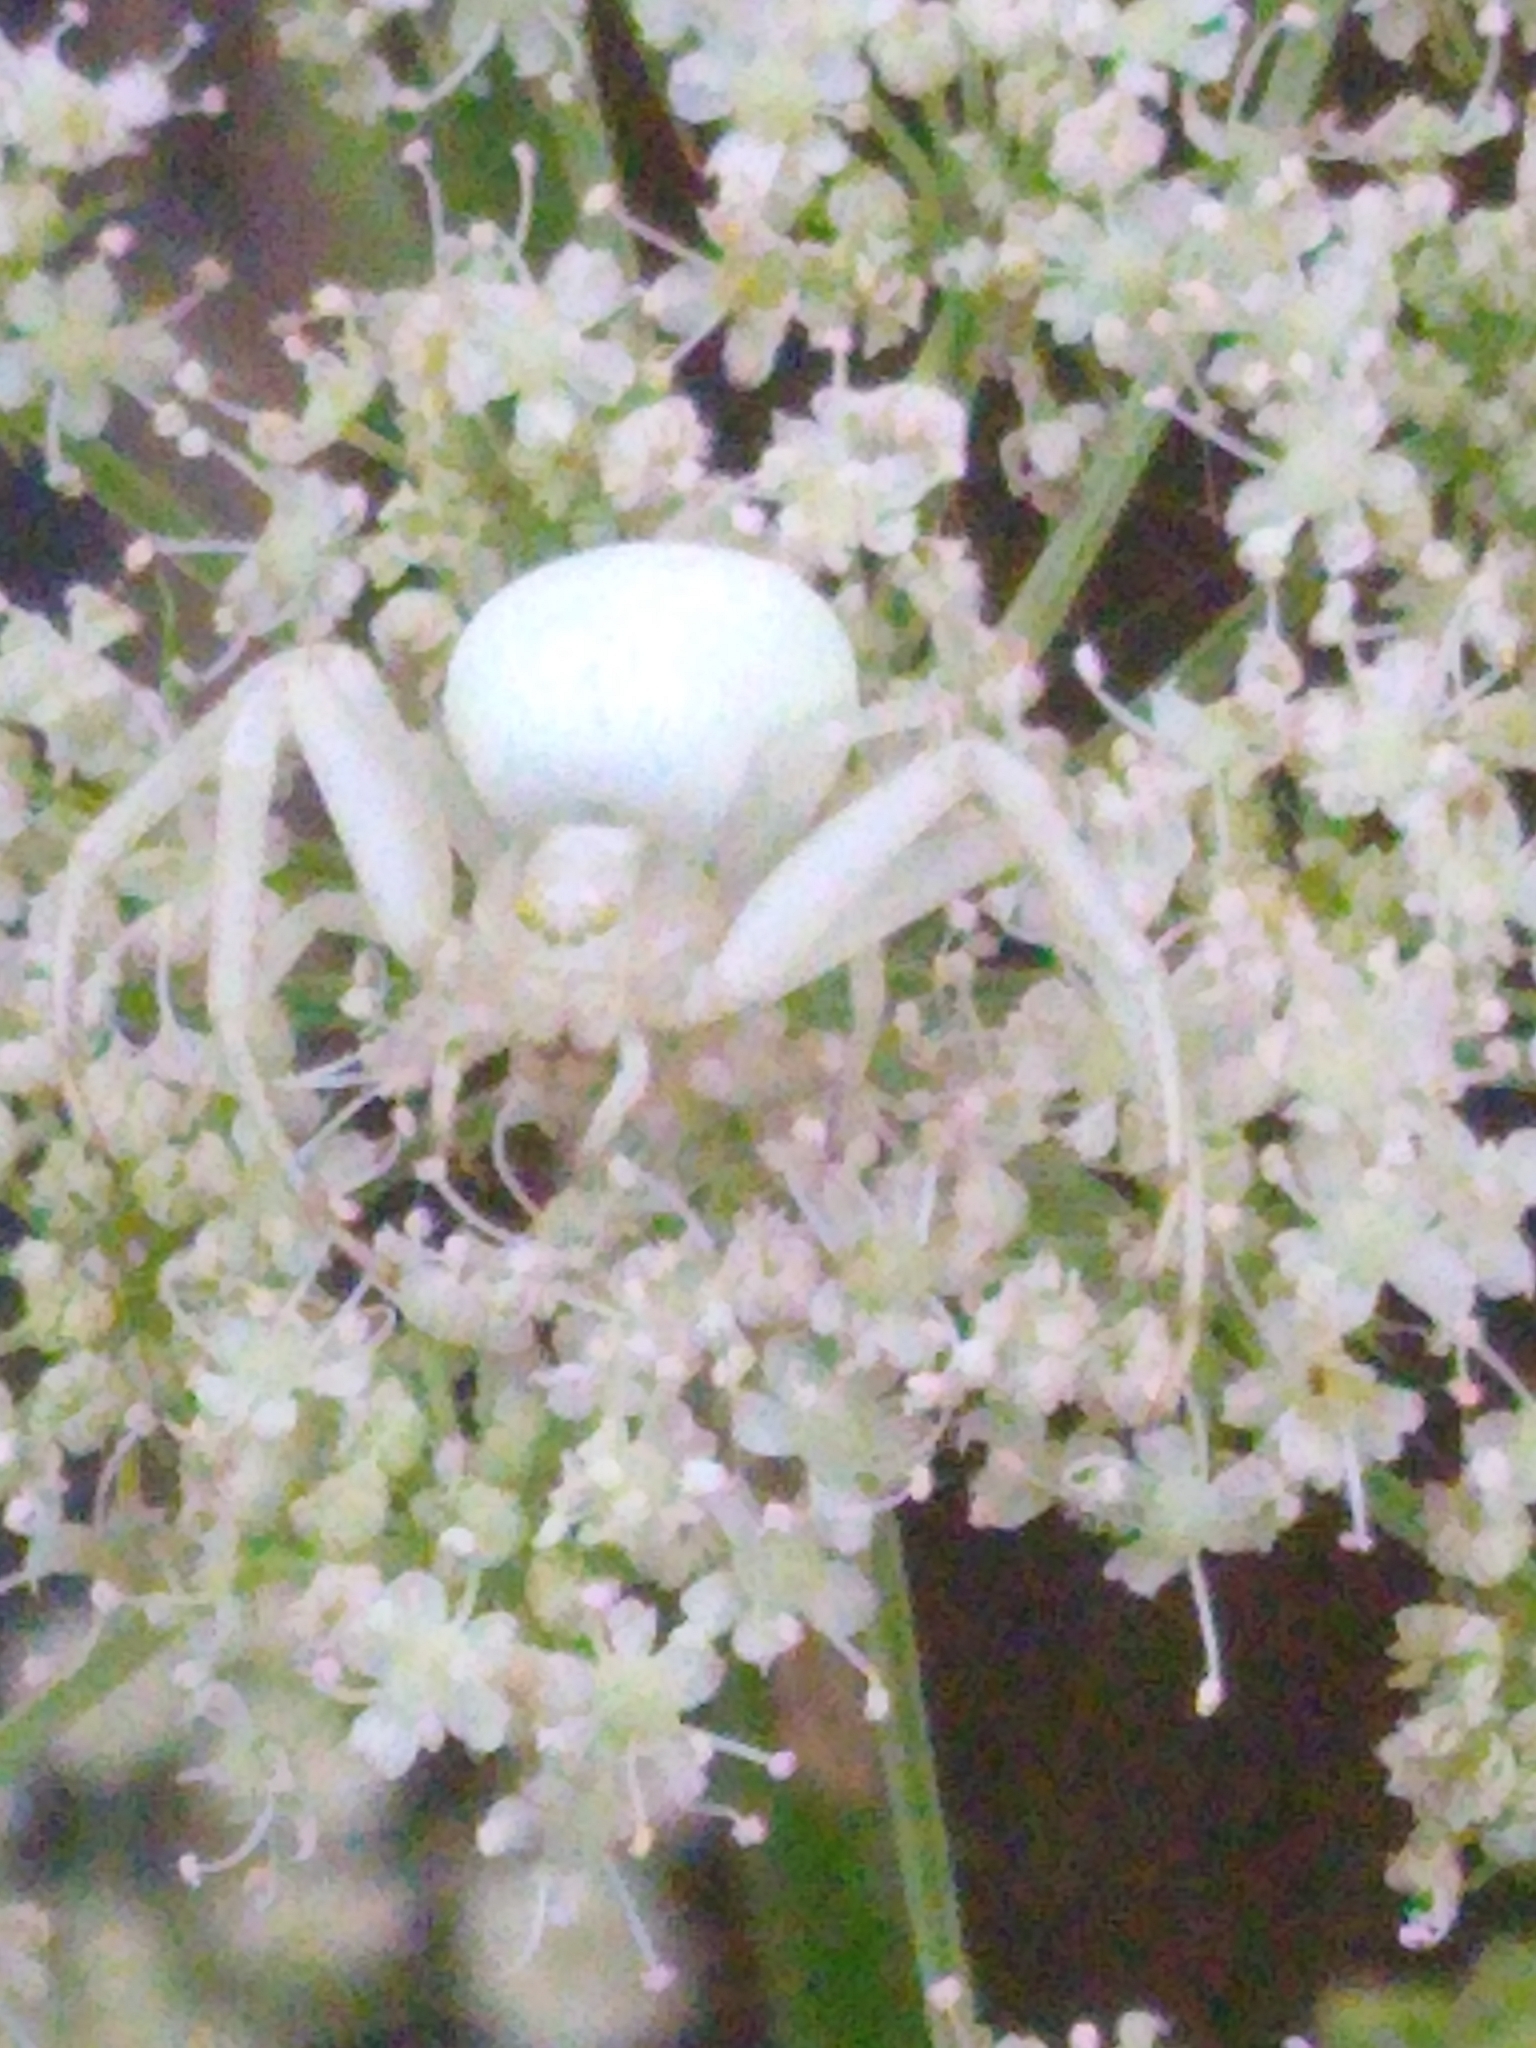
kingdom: Animalia
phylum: Arthropoda
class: Arachnida
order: Araneae
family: Thomisidae
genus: Misumena
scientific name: Misumena vatia
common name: Goldenrod crab spider
